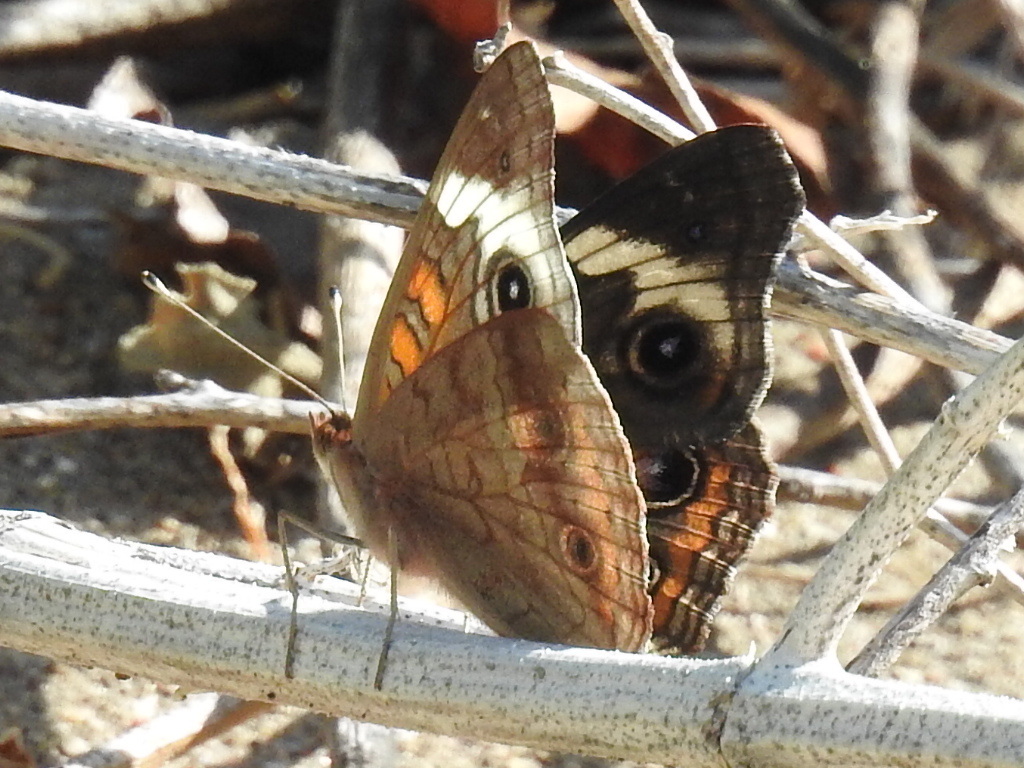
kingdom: Animalia
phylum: Arthropoda
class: Insecta
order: Lepidoptera
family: Nymphalidae
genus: Junonia
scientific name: Junonia coenia
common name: Common buckeye
